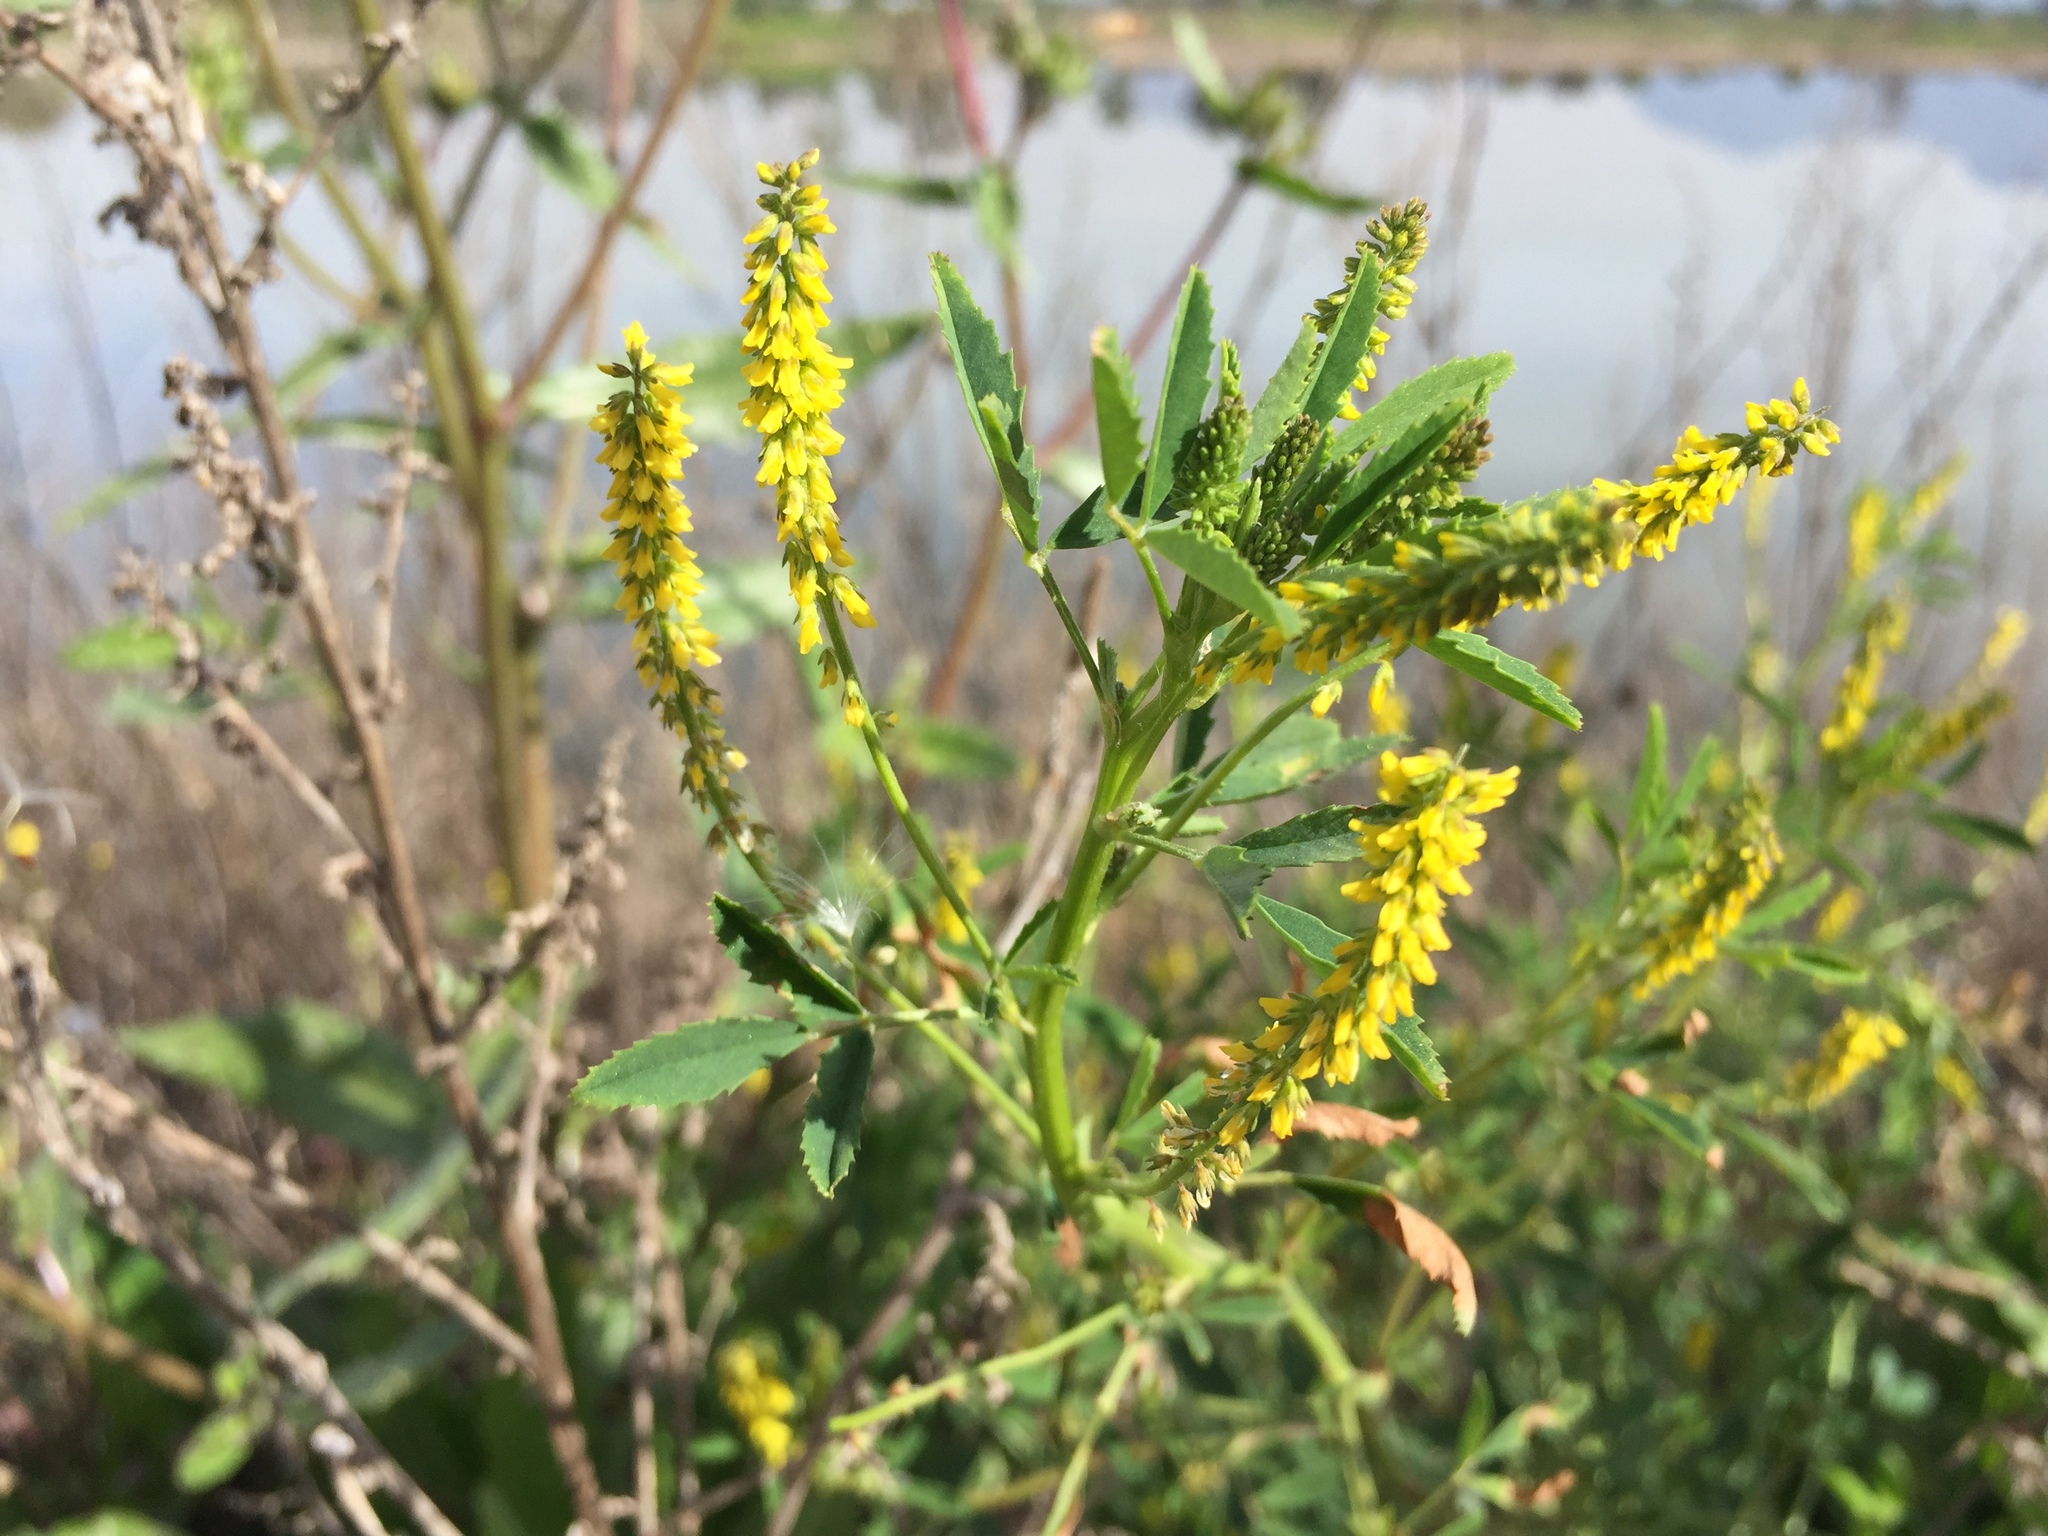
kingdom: Plantae
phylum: Tracheophyta
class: Magnoliopsida
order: Fabales
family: Fabaceae
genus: Melilotus
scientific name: Melilotus indicus
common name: Small melilot
